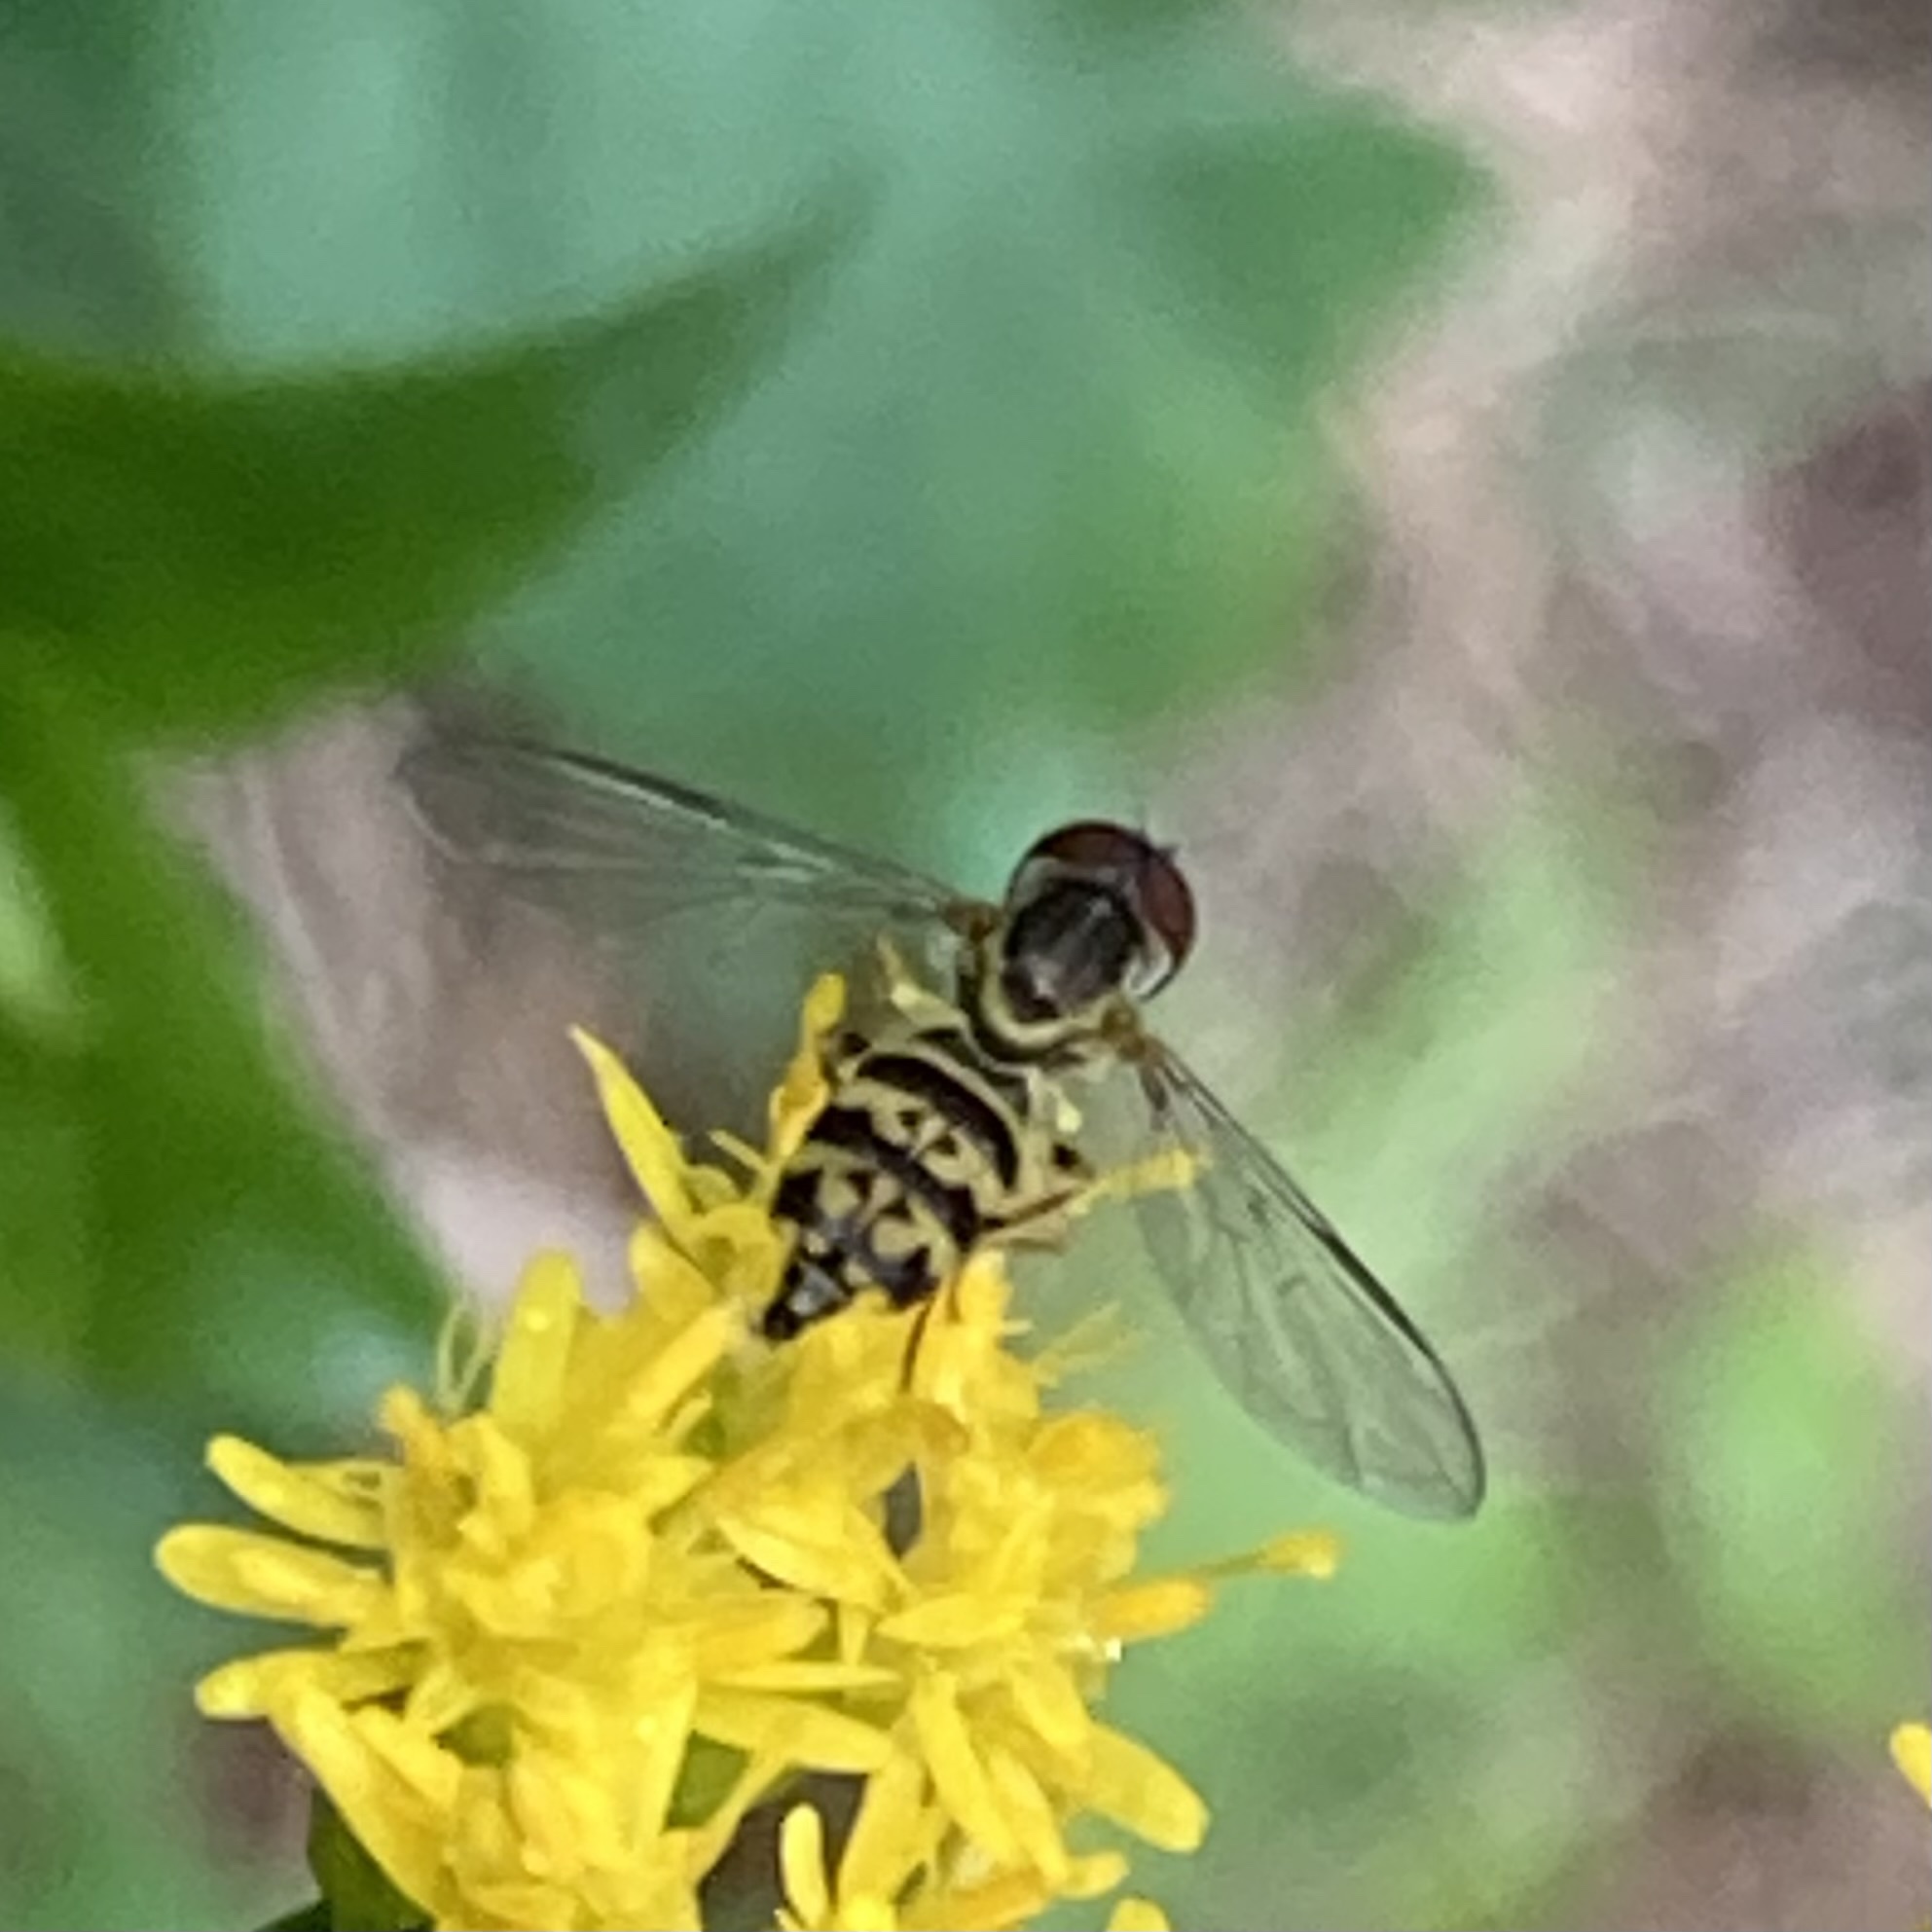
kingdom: Animalia
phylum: Arthropoda
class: Insecta
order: Diptera
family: Syrphidae
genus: Toxomerus
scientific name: Toxomerus geminatus
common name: Eastern calligrapher
